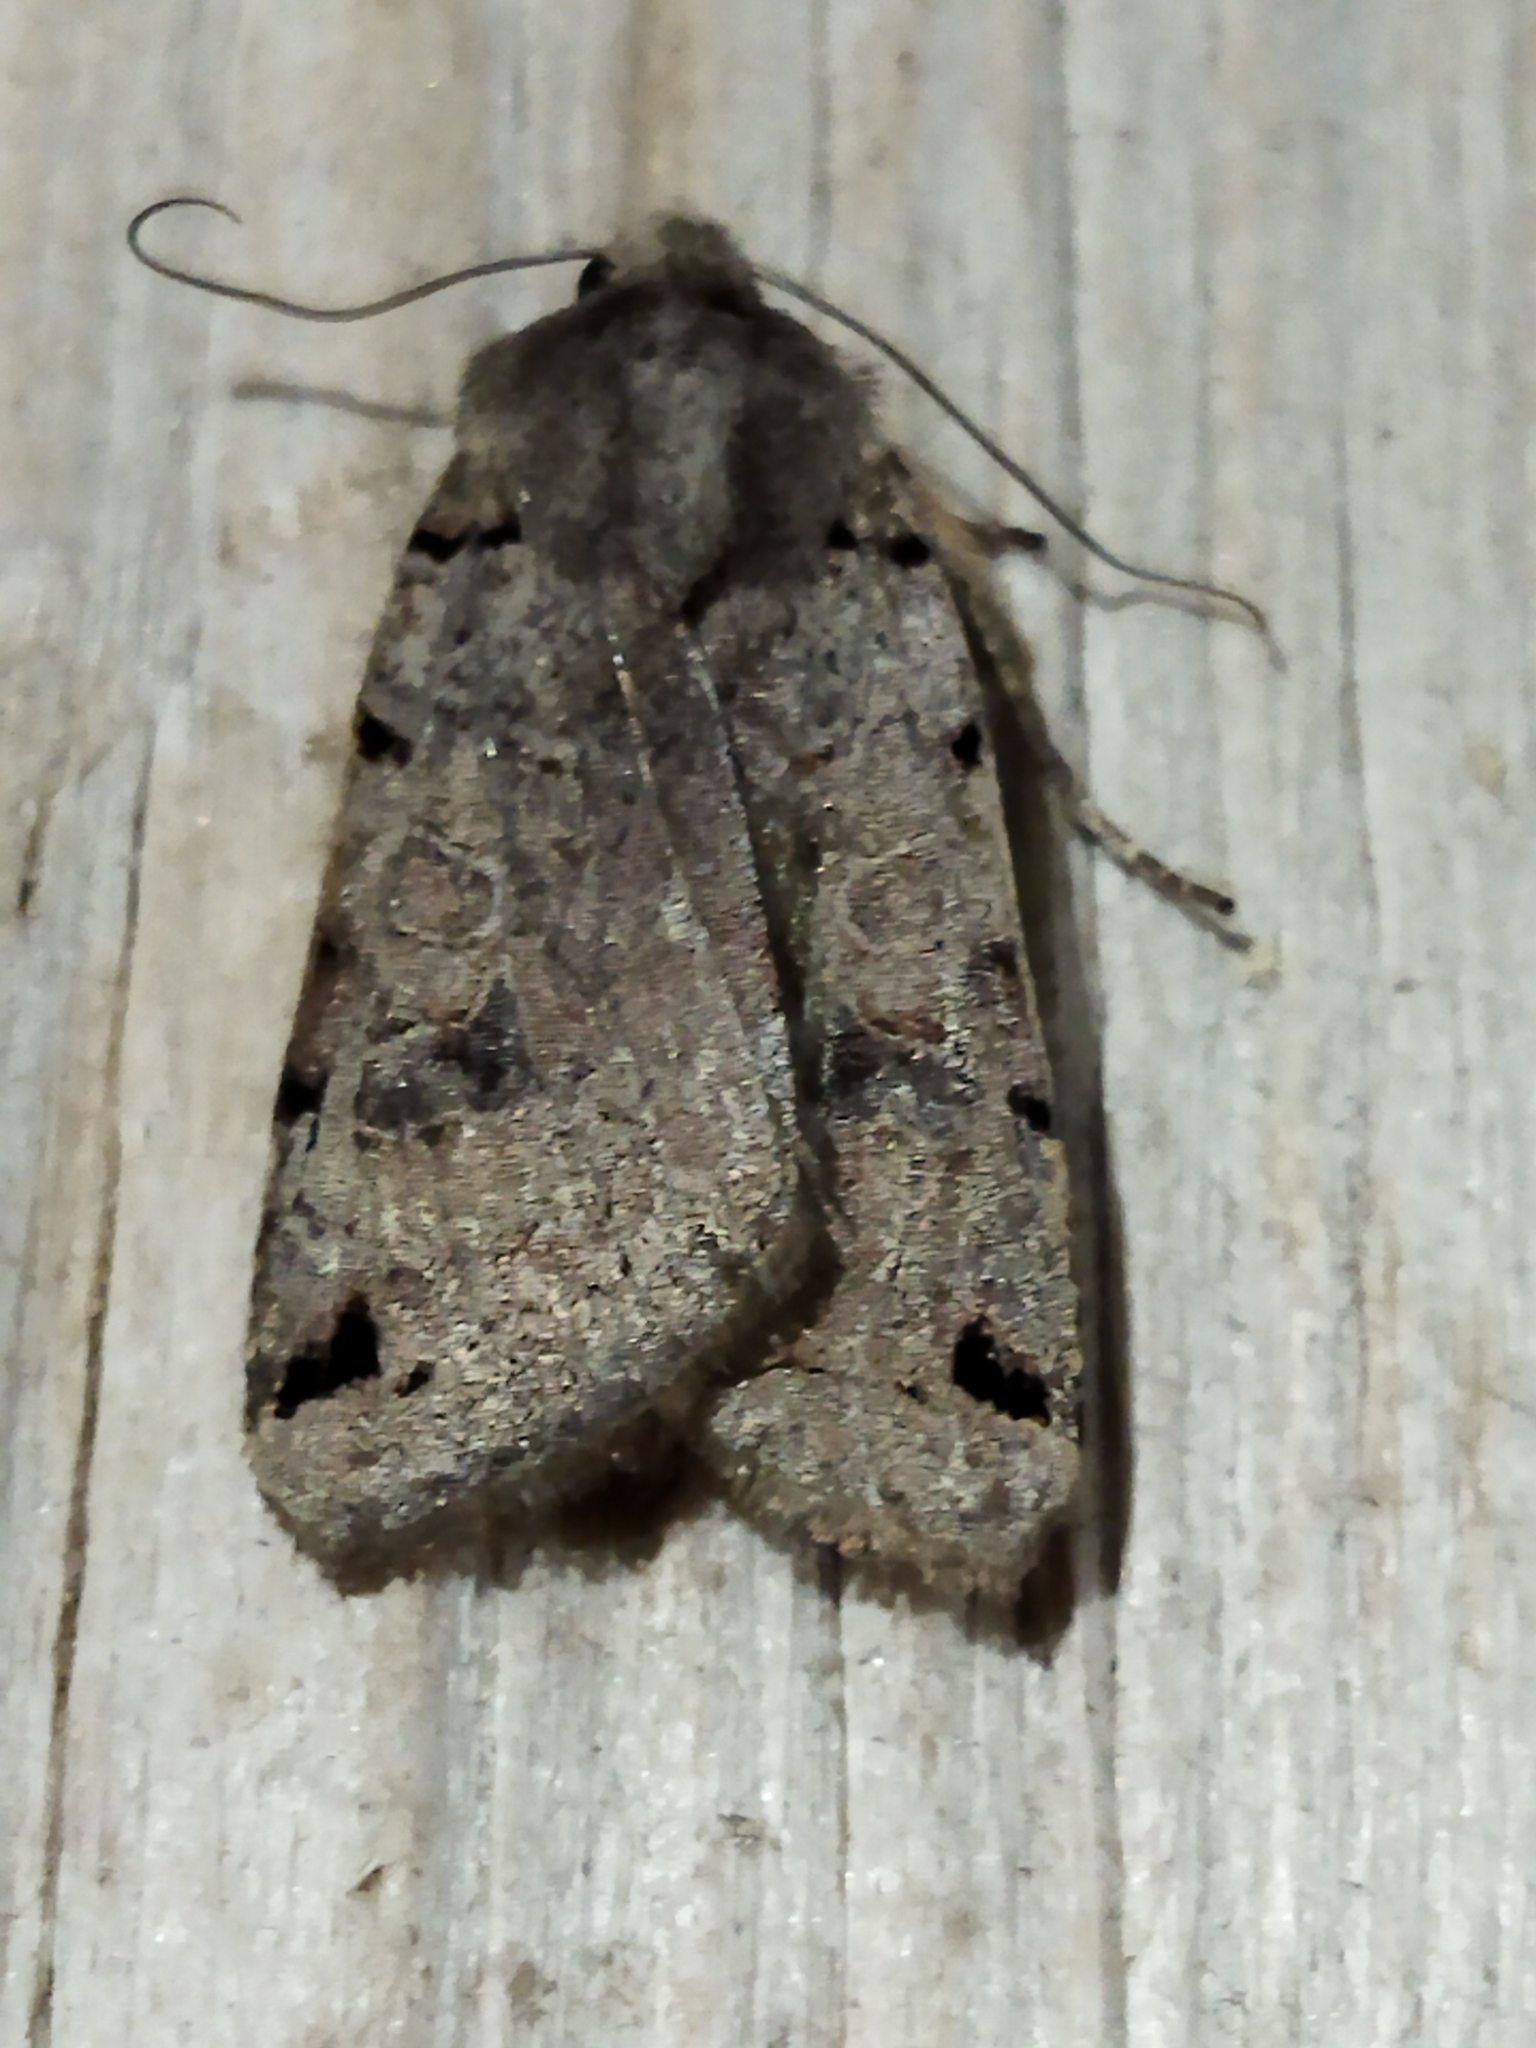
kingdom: Animalia
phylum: Arthropoda
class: Insecta
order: Lepidoptera
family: Noctuidae
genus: Agrochola
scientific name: Agrochola litura
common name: Brown-spot pinion
